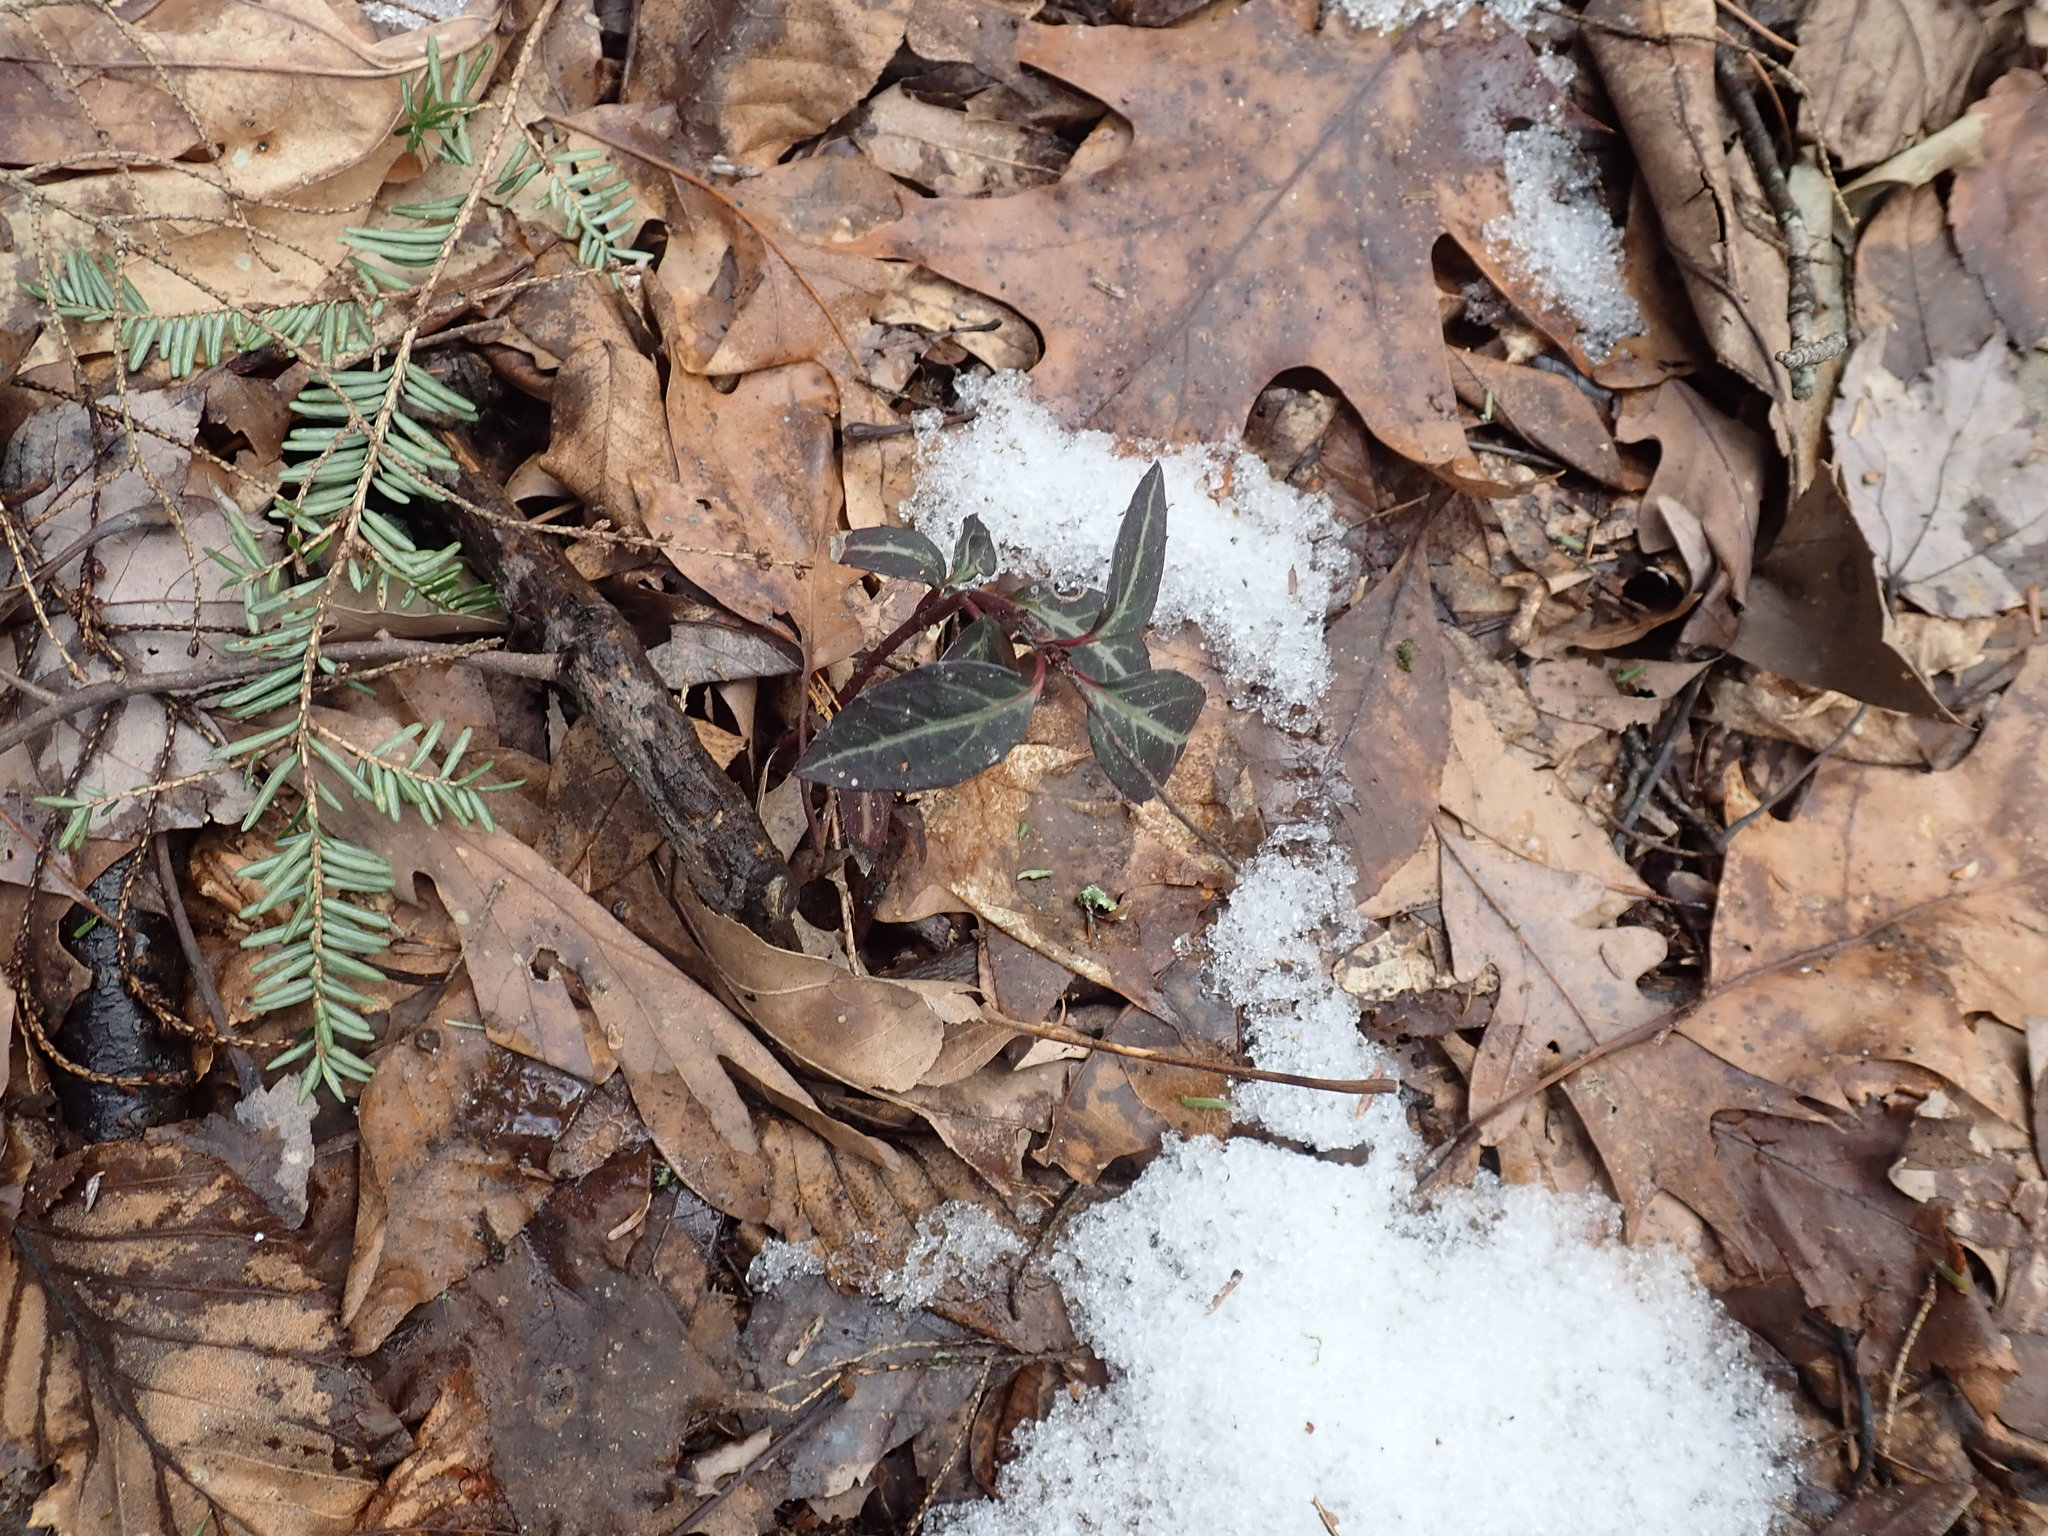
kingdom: Plantae
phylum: Tracheophyta
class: Magnoliopsida
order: Ericales
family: Ericaceae
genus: Chimaphila
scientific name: Chimaphila maculata
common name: Spotted pipsissewa
